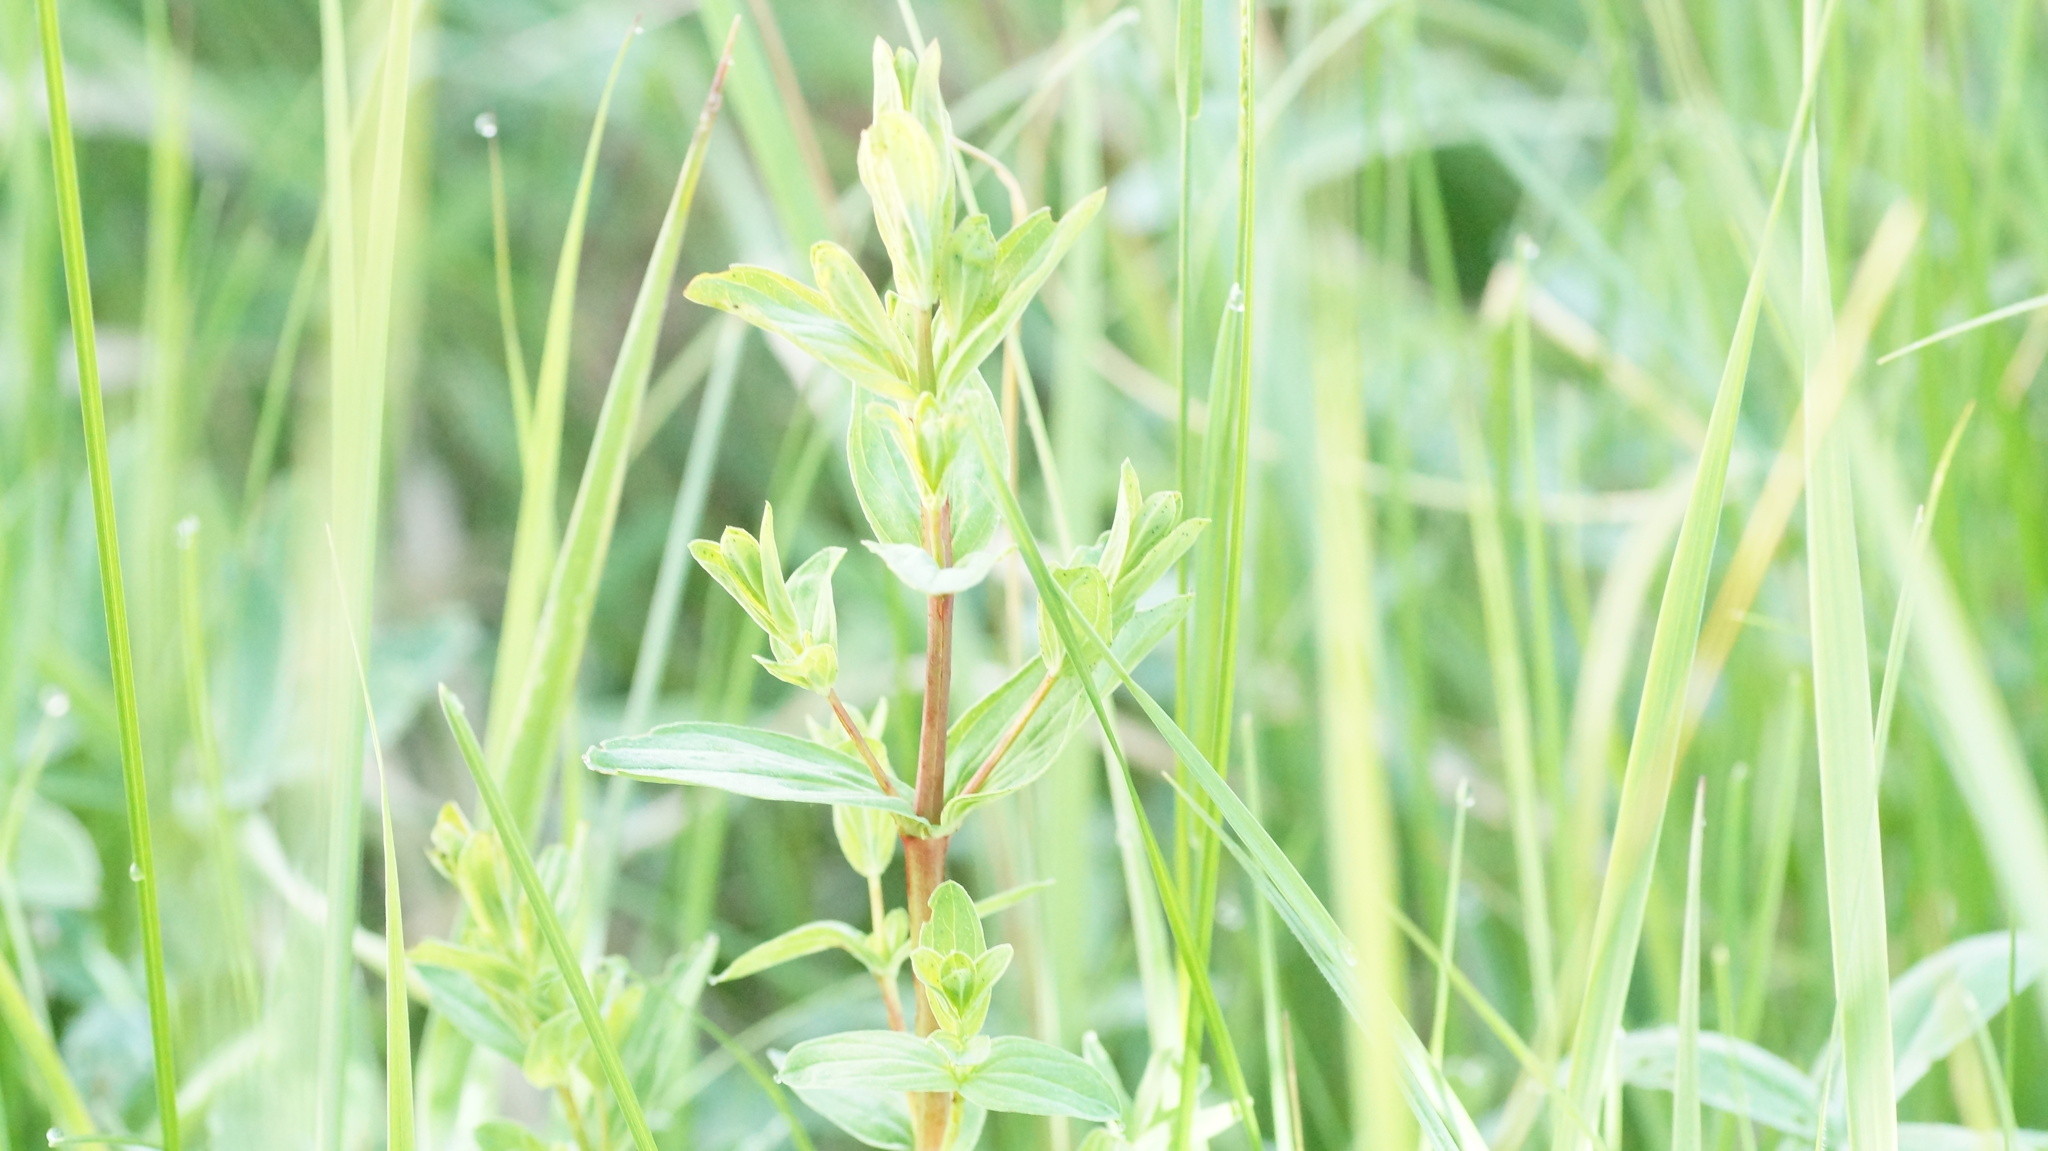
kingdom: Plantae
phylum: Tracheophyta
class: Magnoliopsida
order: Malpighiales
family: Hypericaceae
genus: Hypericum
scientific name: Hypericum perforatum
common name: Common st. johnswort
